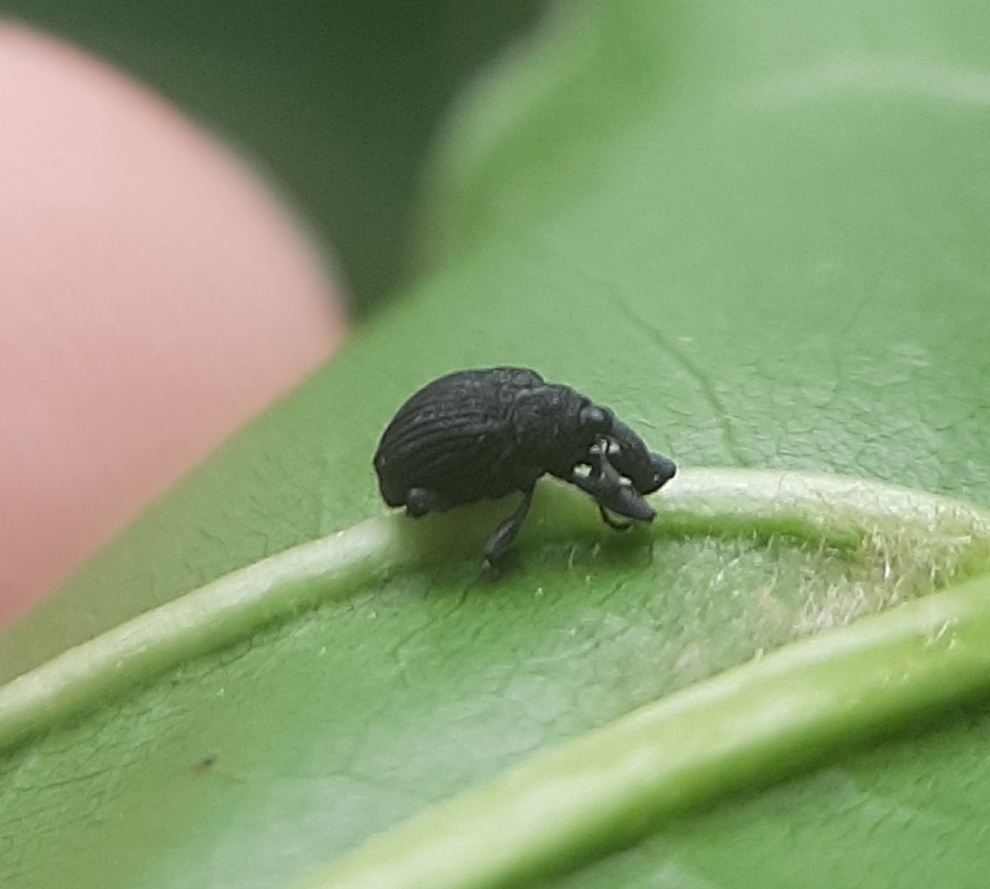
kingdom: Animalia
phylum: Arthropoda
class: Insecta
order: Coleoptera
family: Curculionidae
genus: Odontopus
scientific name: Odontopus calceatus
